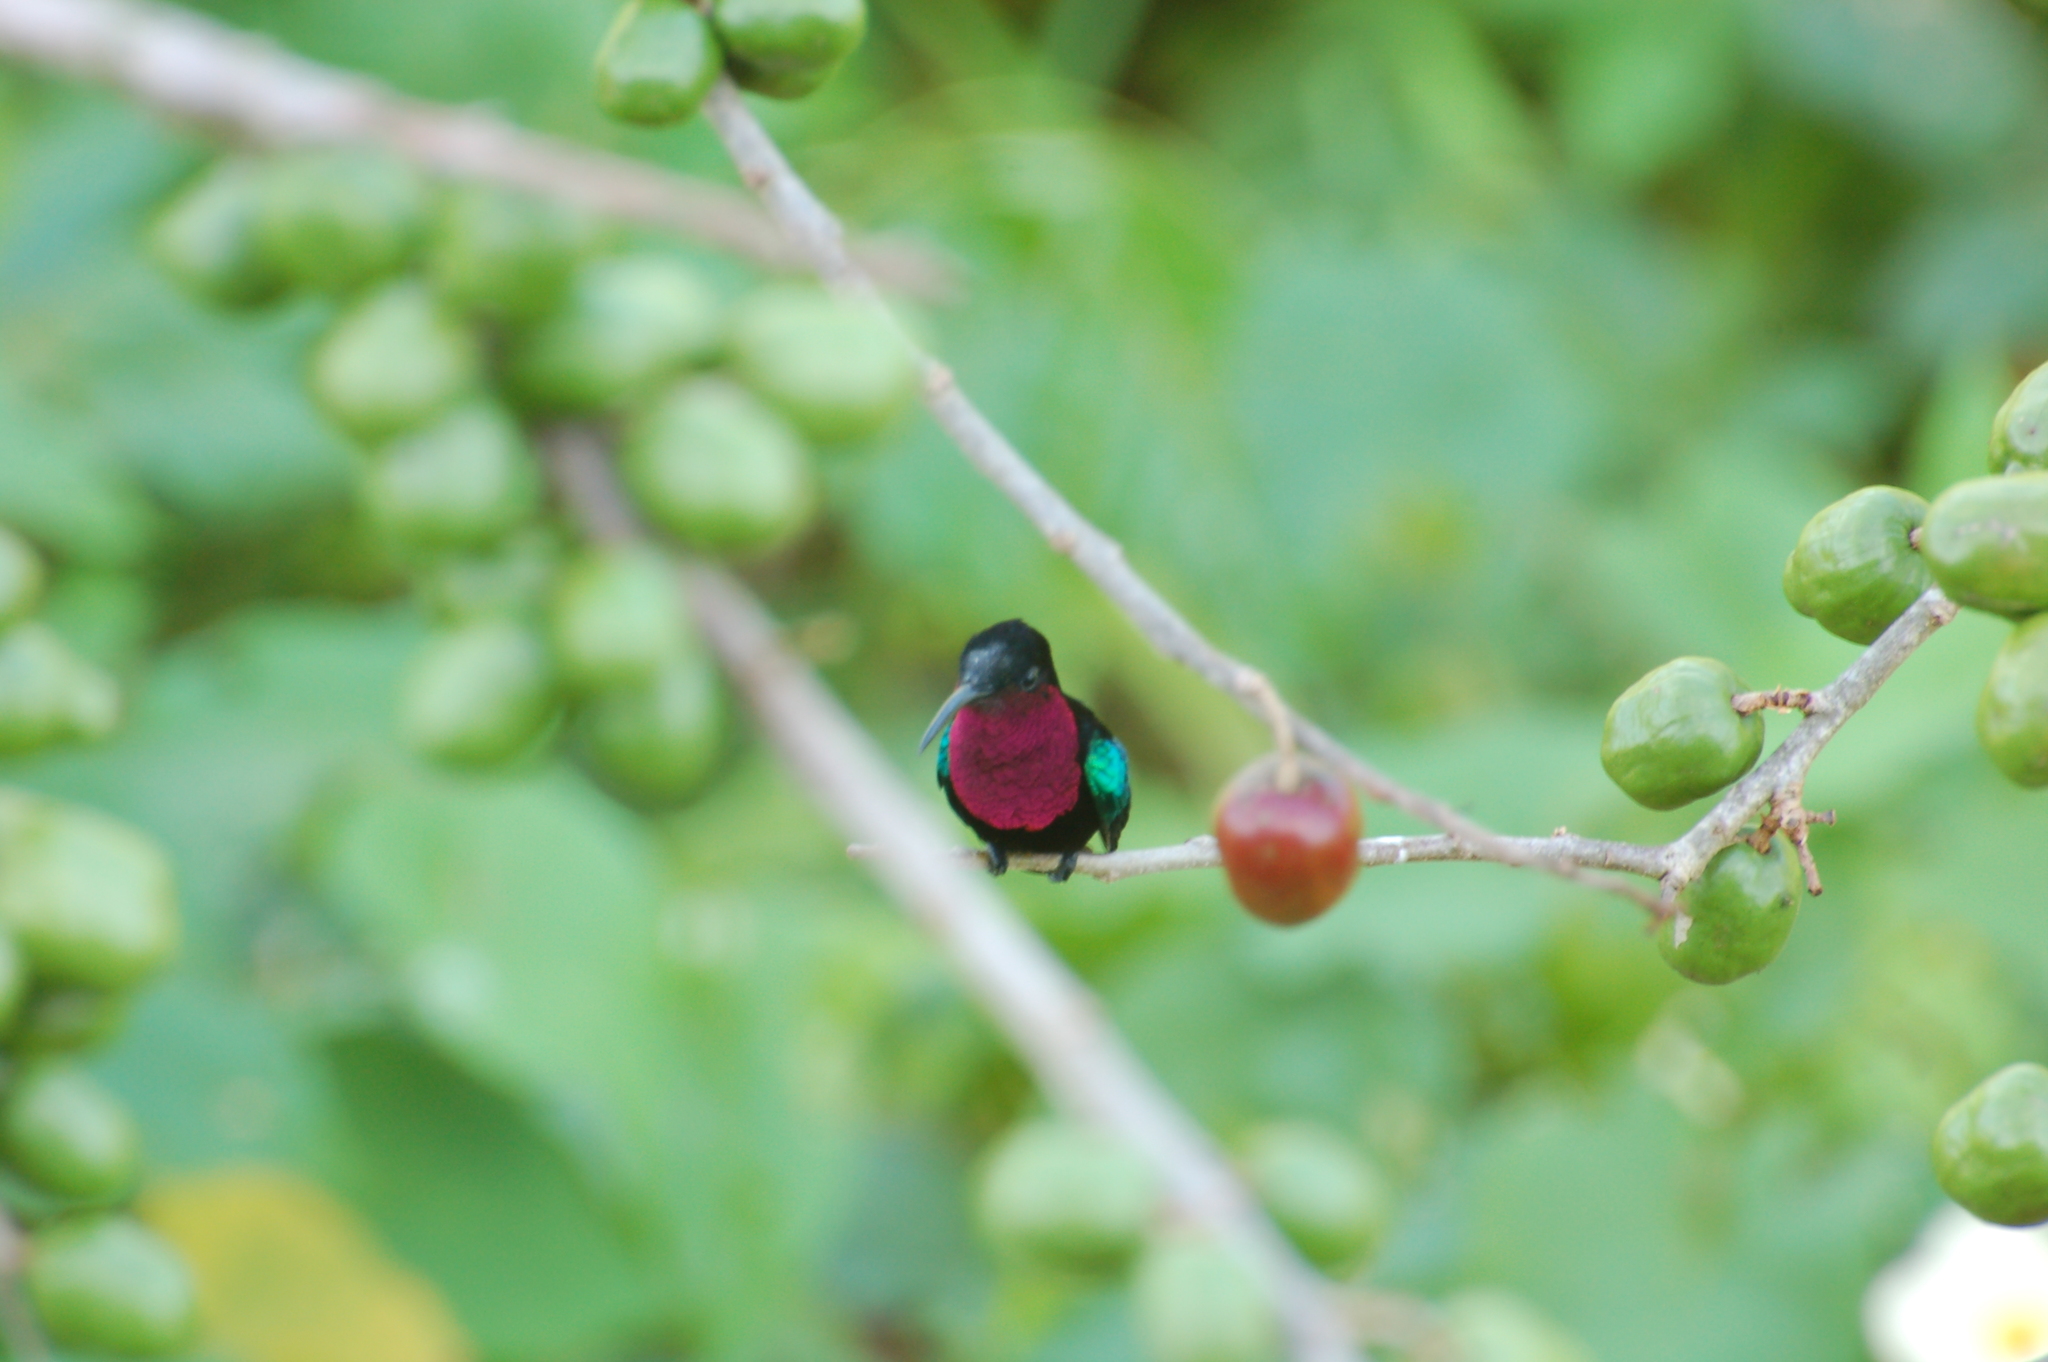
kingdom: Animalia
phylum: Chordata
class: Aves
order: Apodiformes
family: Trochilidae
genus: Eulampis
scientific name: Eulampis jugularis
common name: Purple-throated carib
